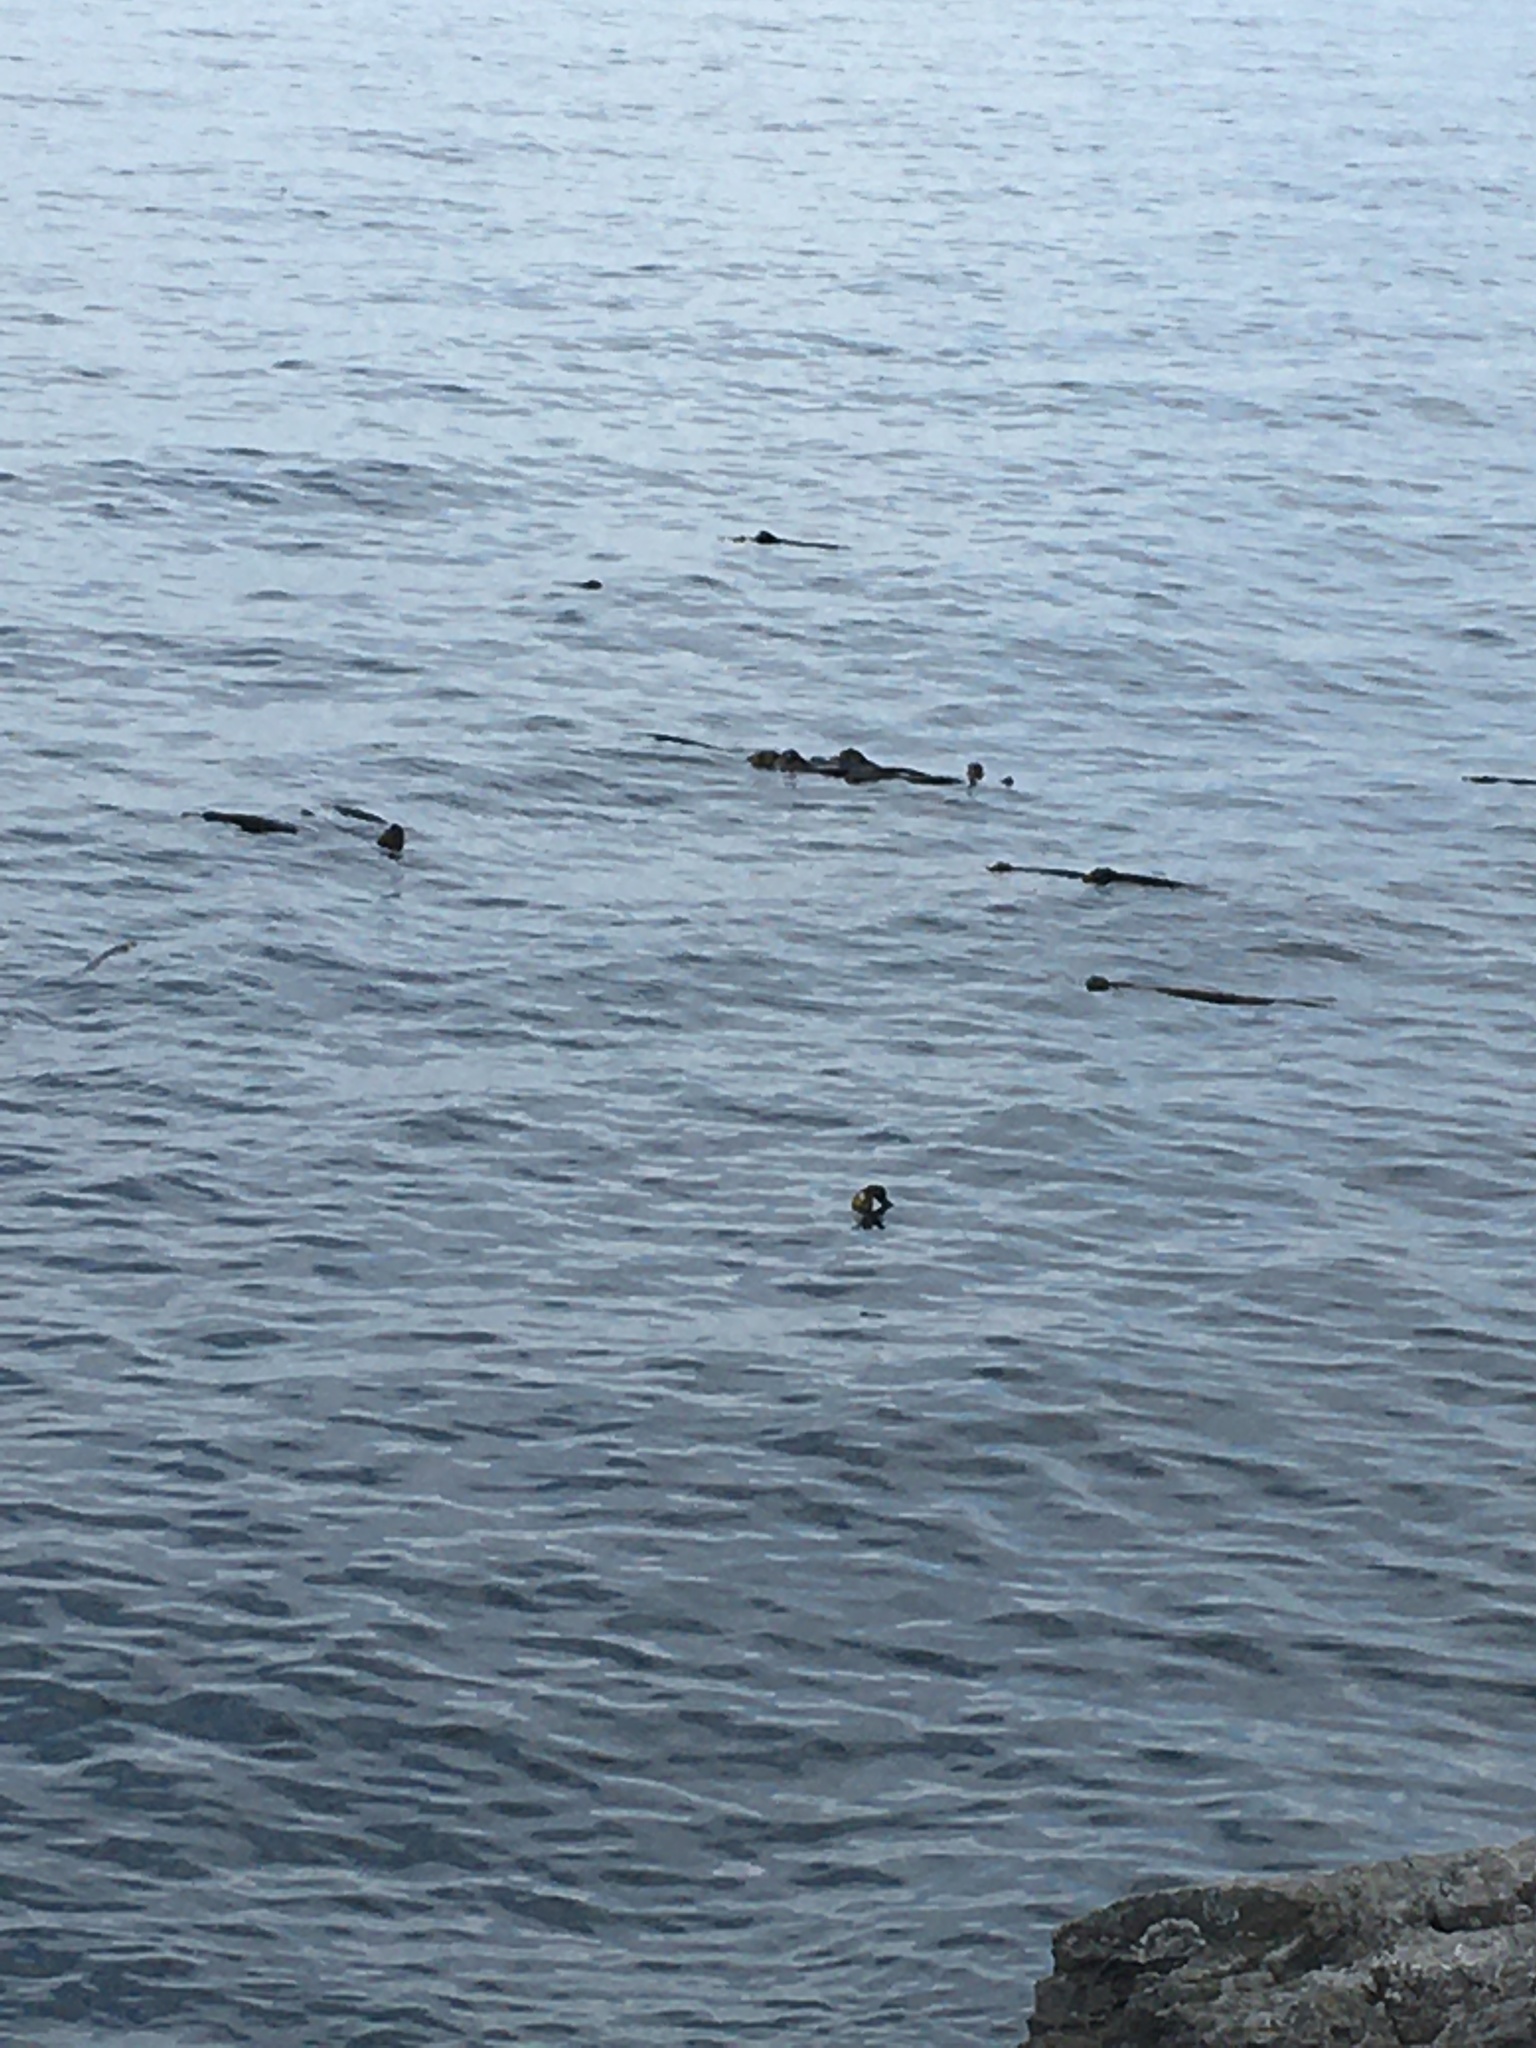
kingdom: Chromista
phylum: Ochrophyta
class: Phaeophyceae
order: Laminariales
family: Laminariaceae
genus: Nereocystis
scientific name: Nereocystis luetkeana
